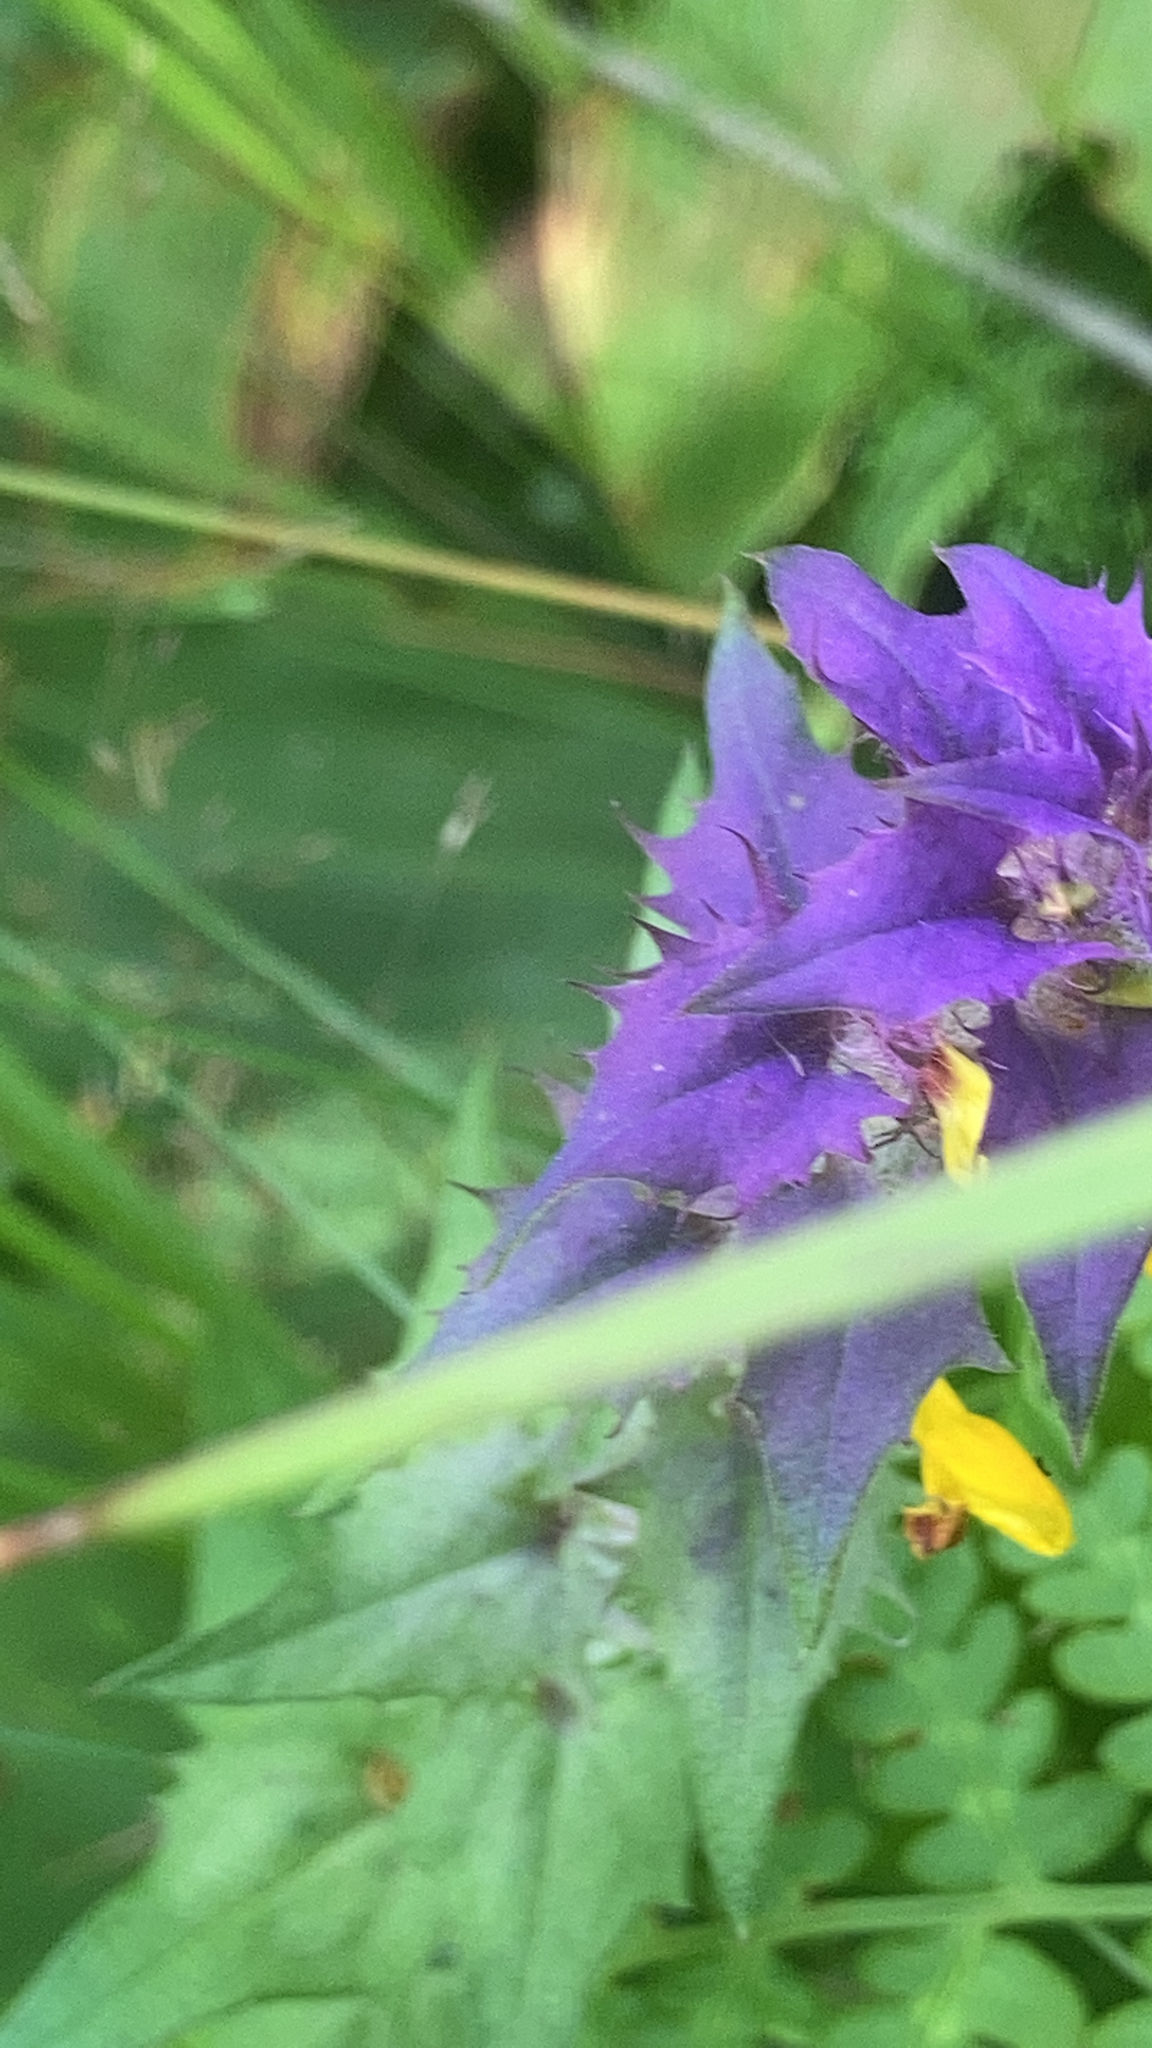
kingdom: Plantae
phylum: Tracheophyta
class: Magnoliopsida
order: Lamiales
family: Orobanchaceae
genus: Melampyrum
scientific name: Melampyrum nemorosum
